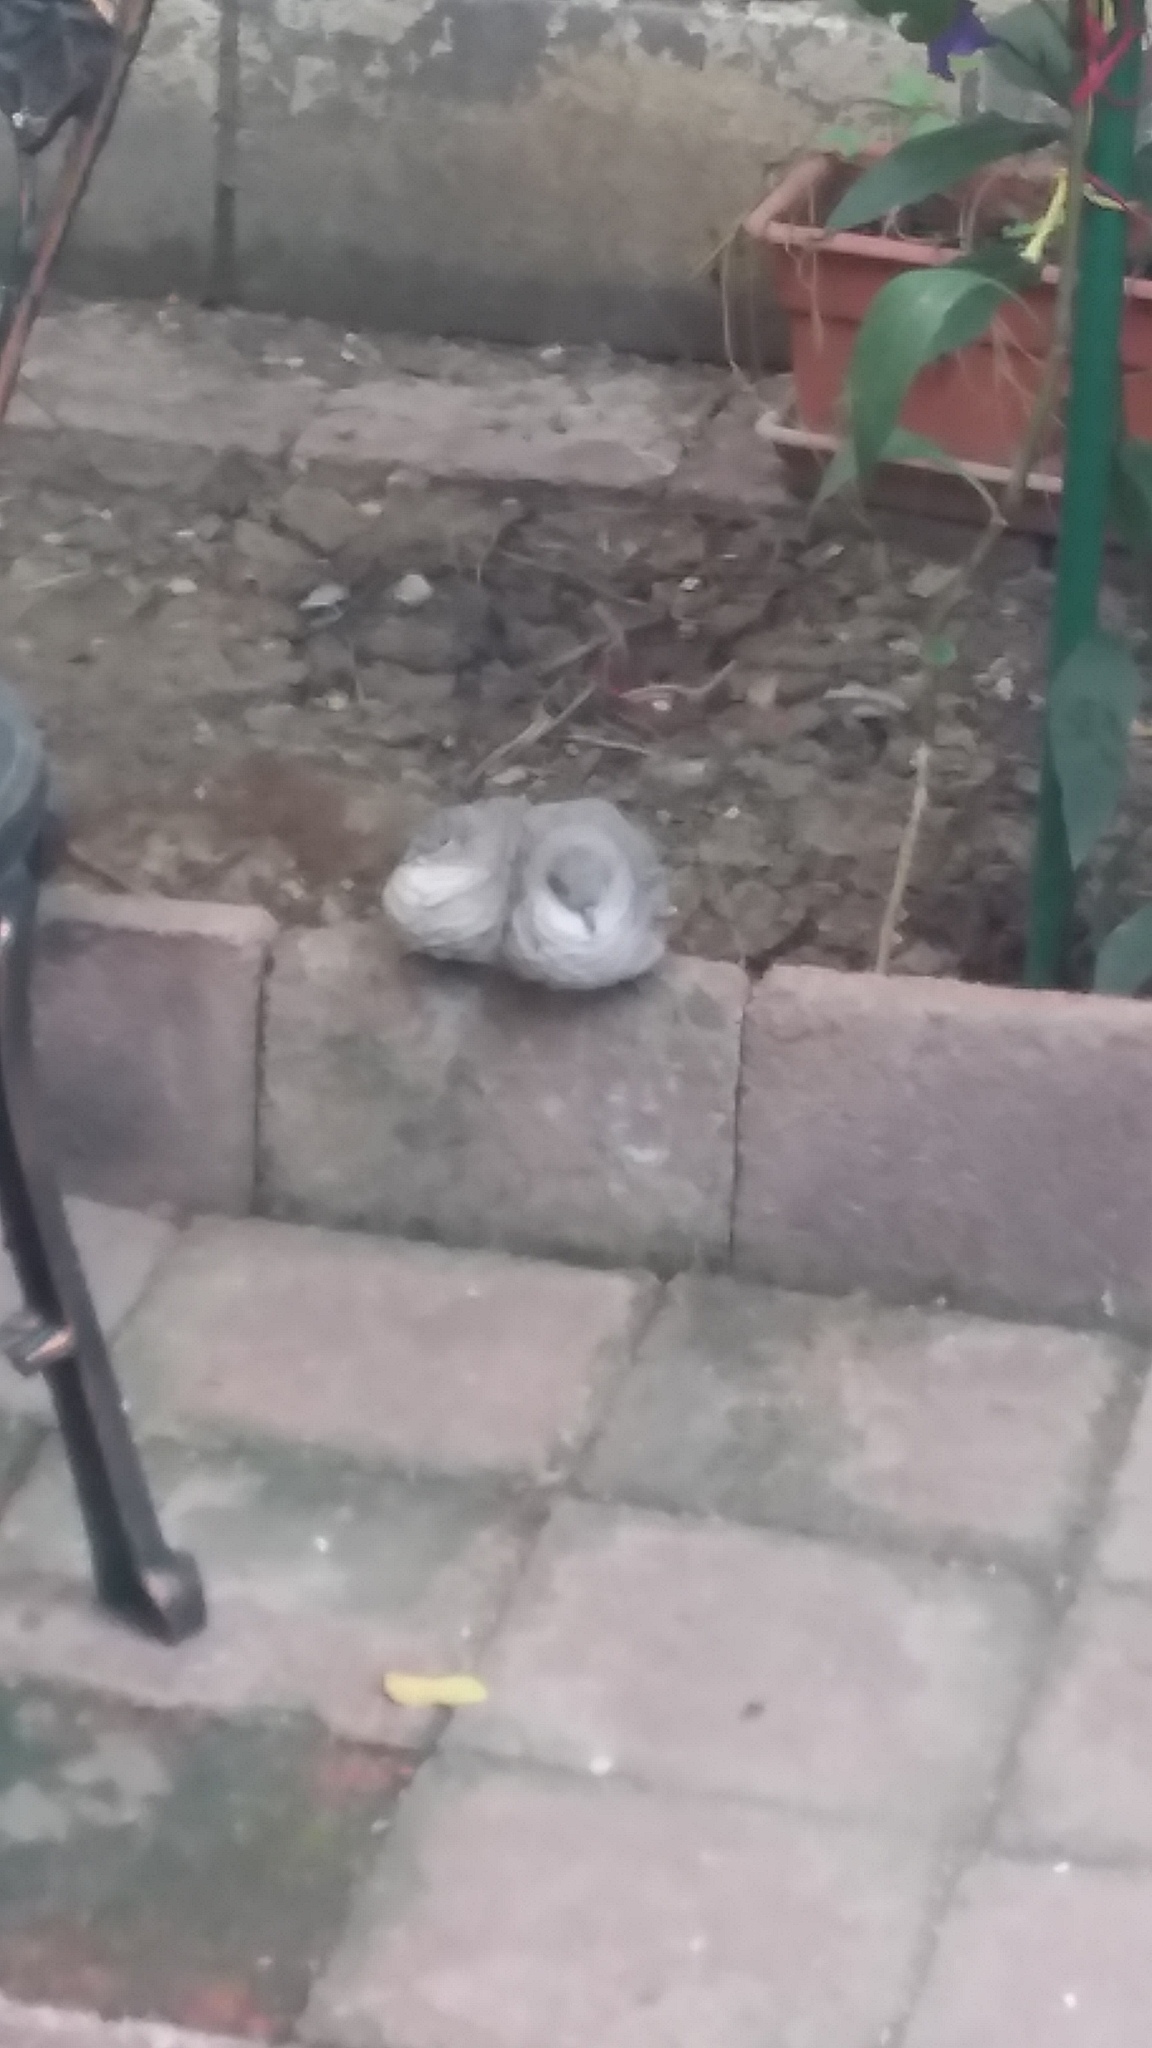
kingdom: Animalia
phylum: Chordata
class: Aves
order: Columbiformes
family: Columbidae
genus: Columbina
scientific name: Columbina inca
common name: Inca dove
